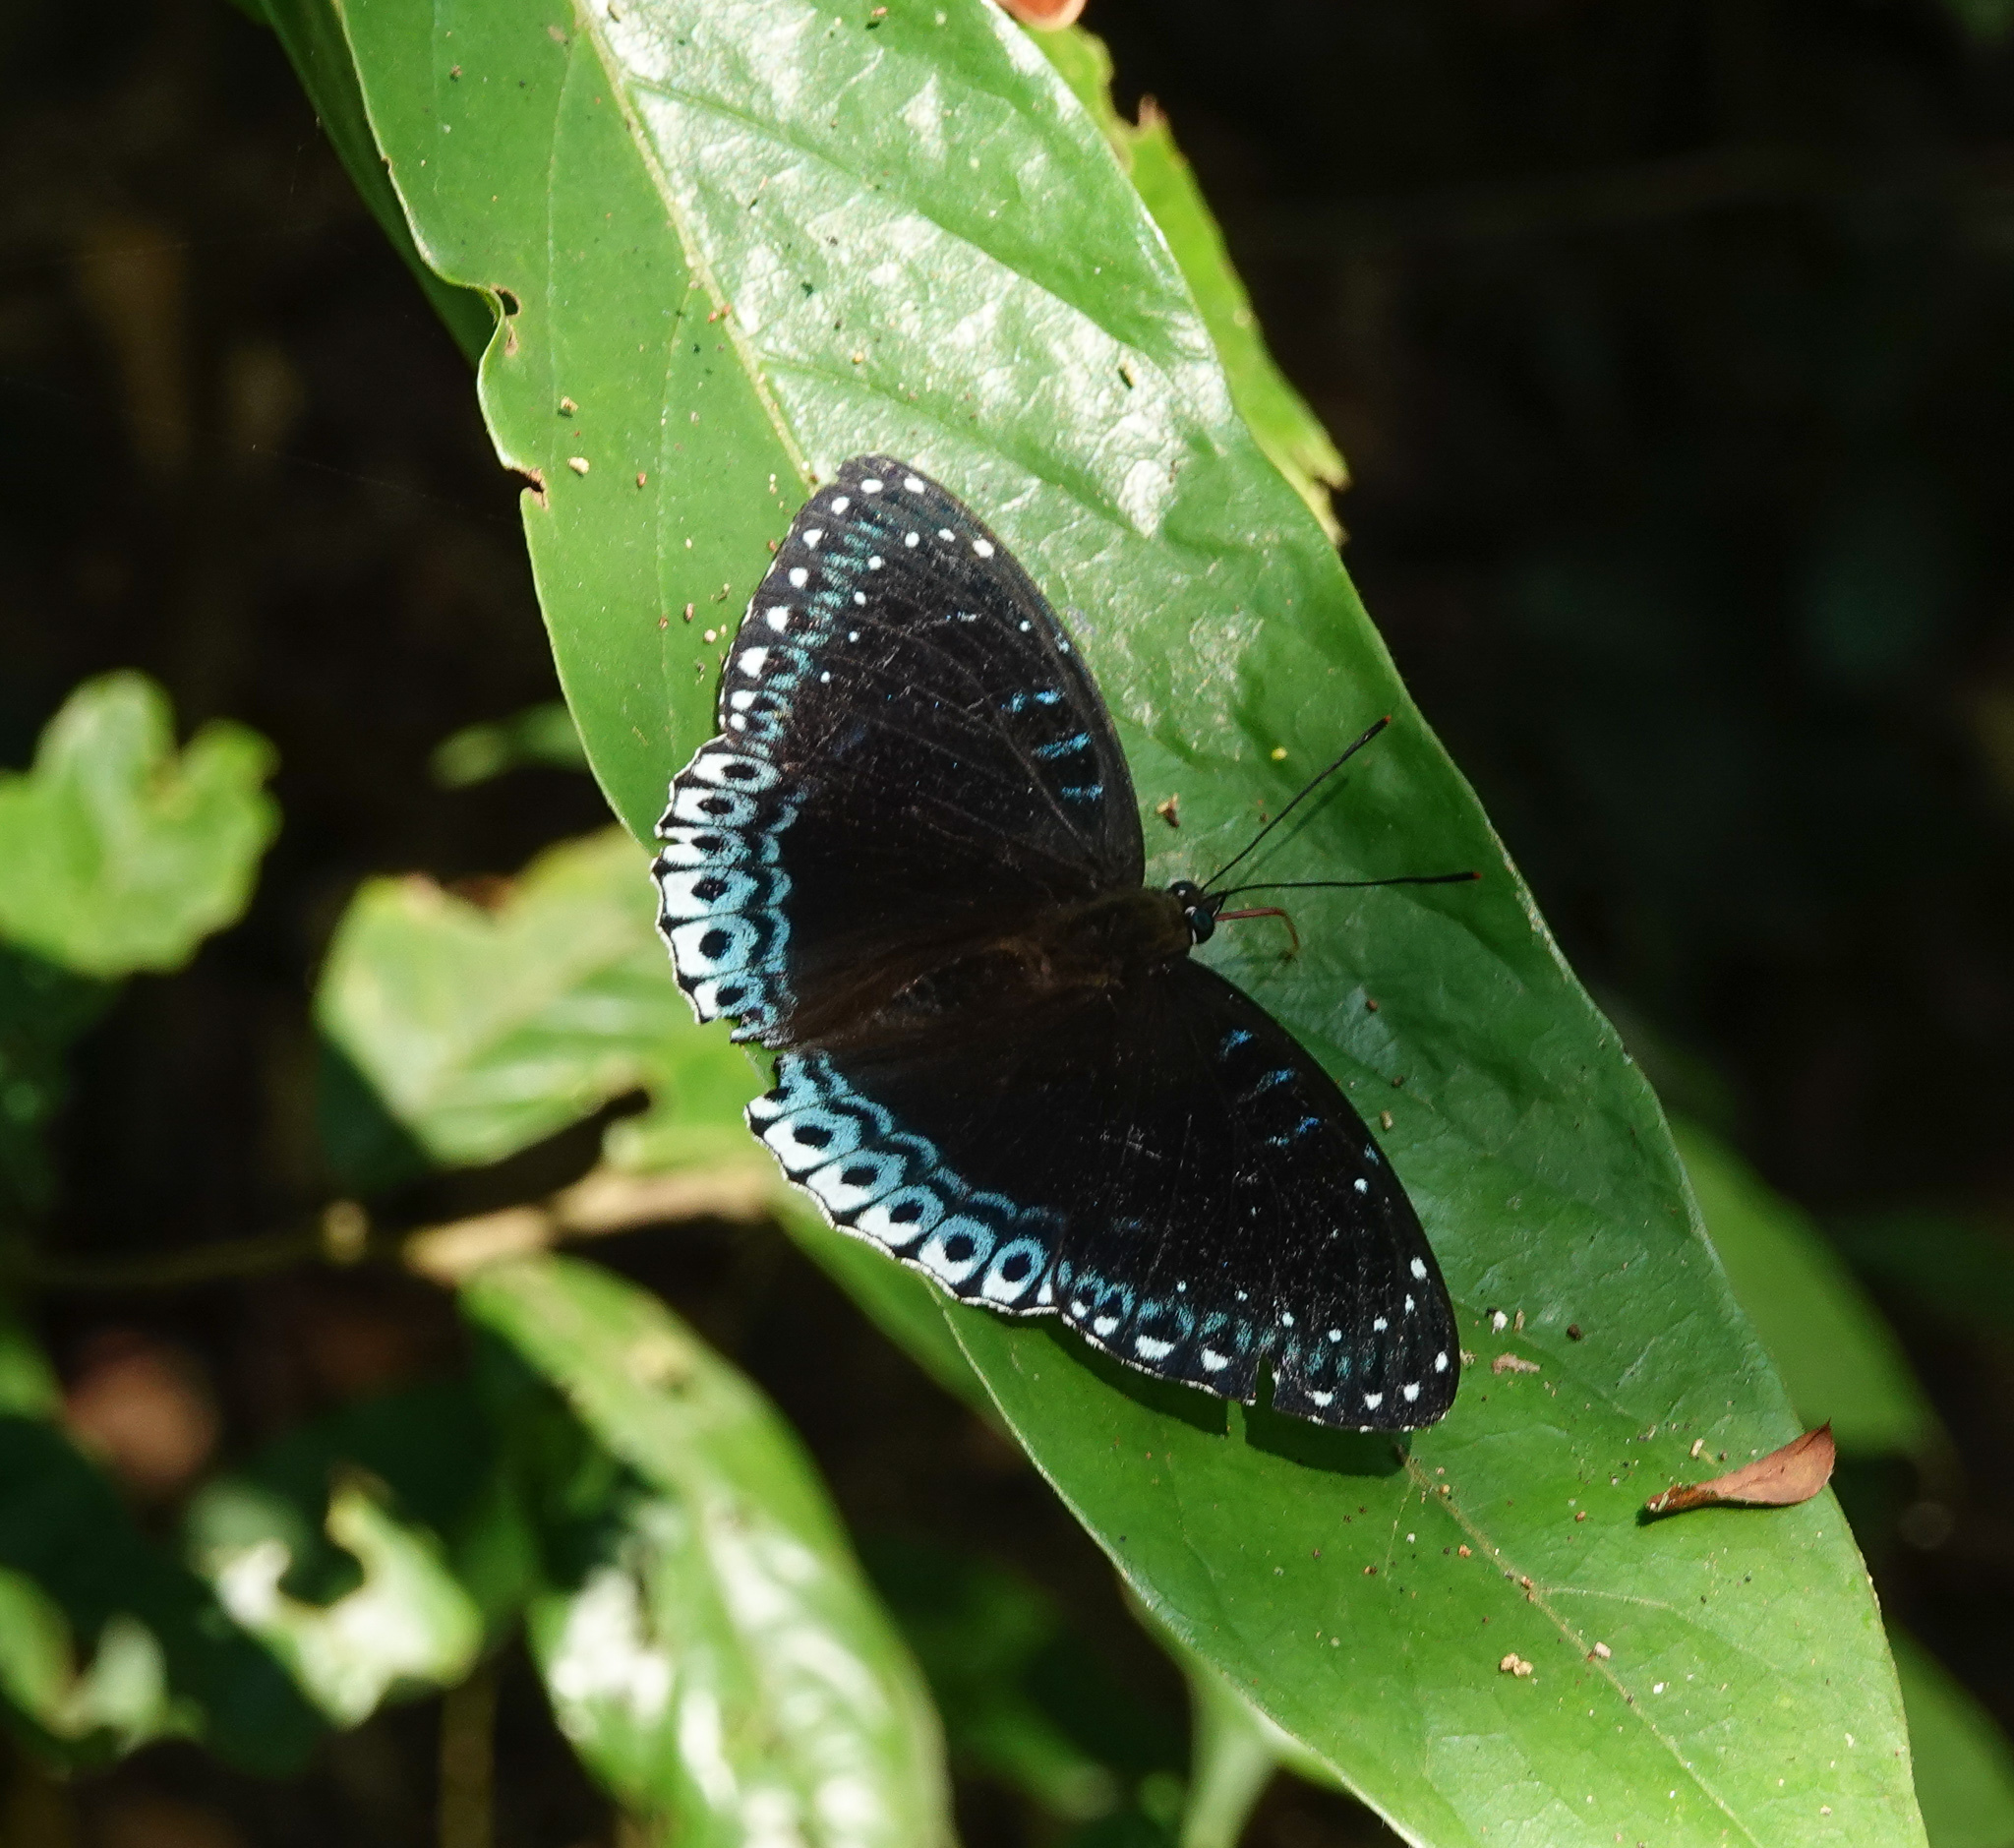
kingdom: Animalia
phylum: Arthropoda
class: Insecta
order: Lepidoptera
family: Nymphalidae
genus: Stibochiona
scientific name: Stibochiona nicea
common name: Popinjay
